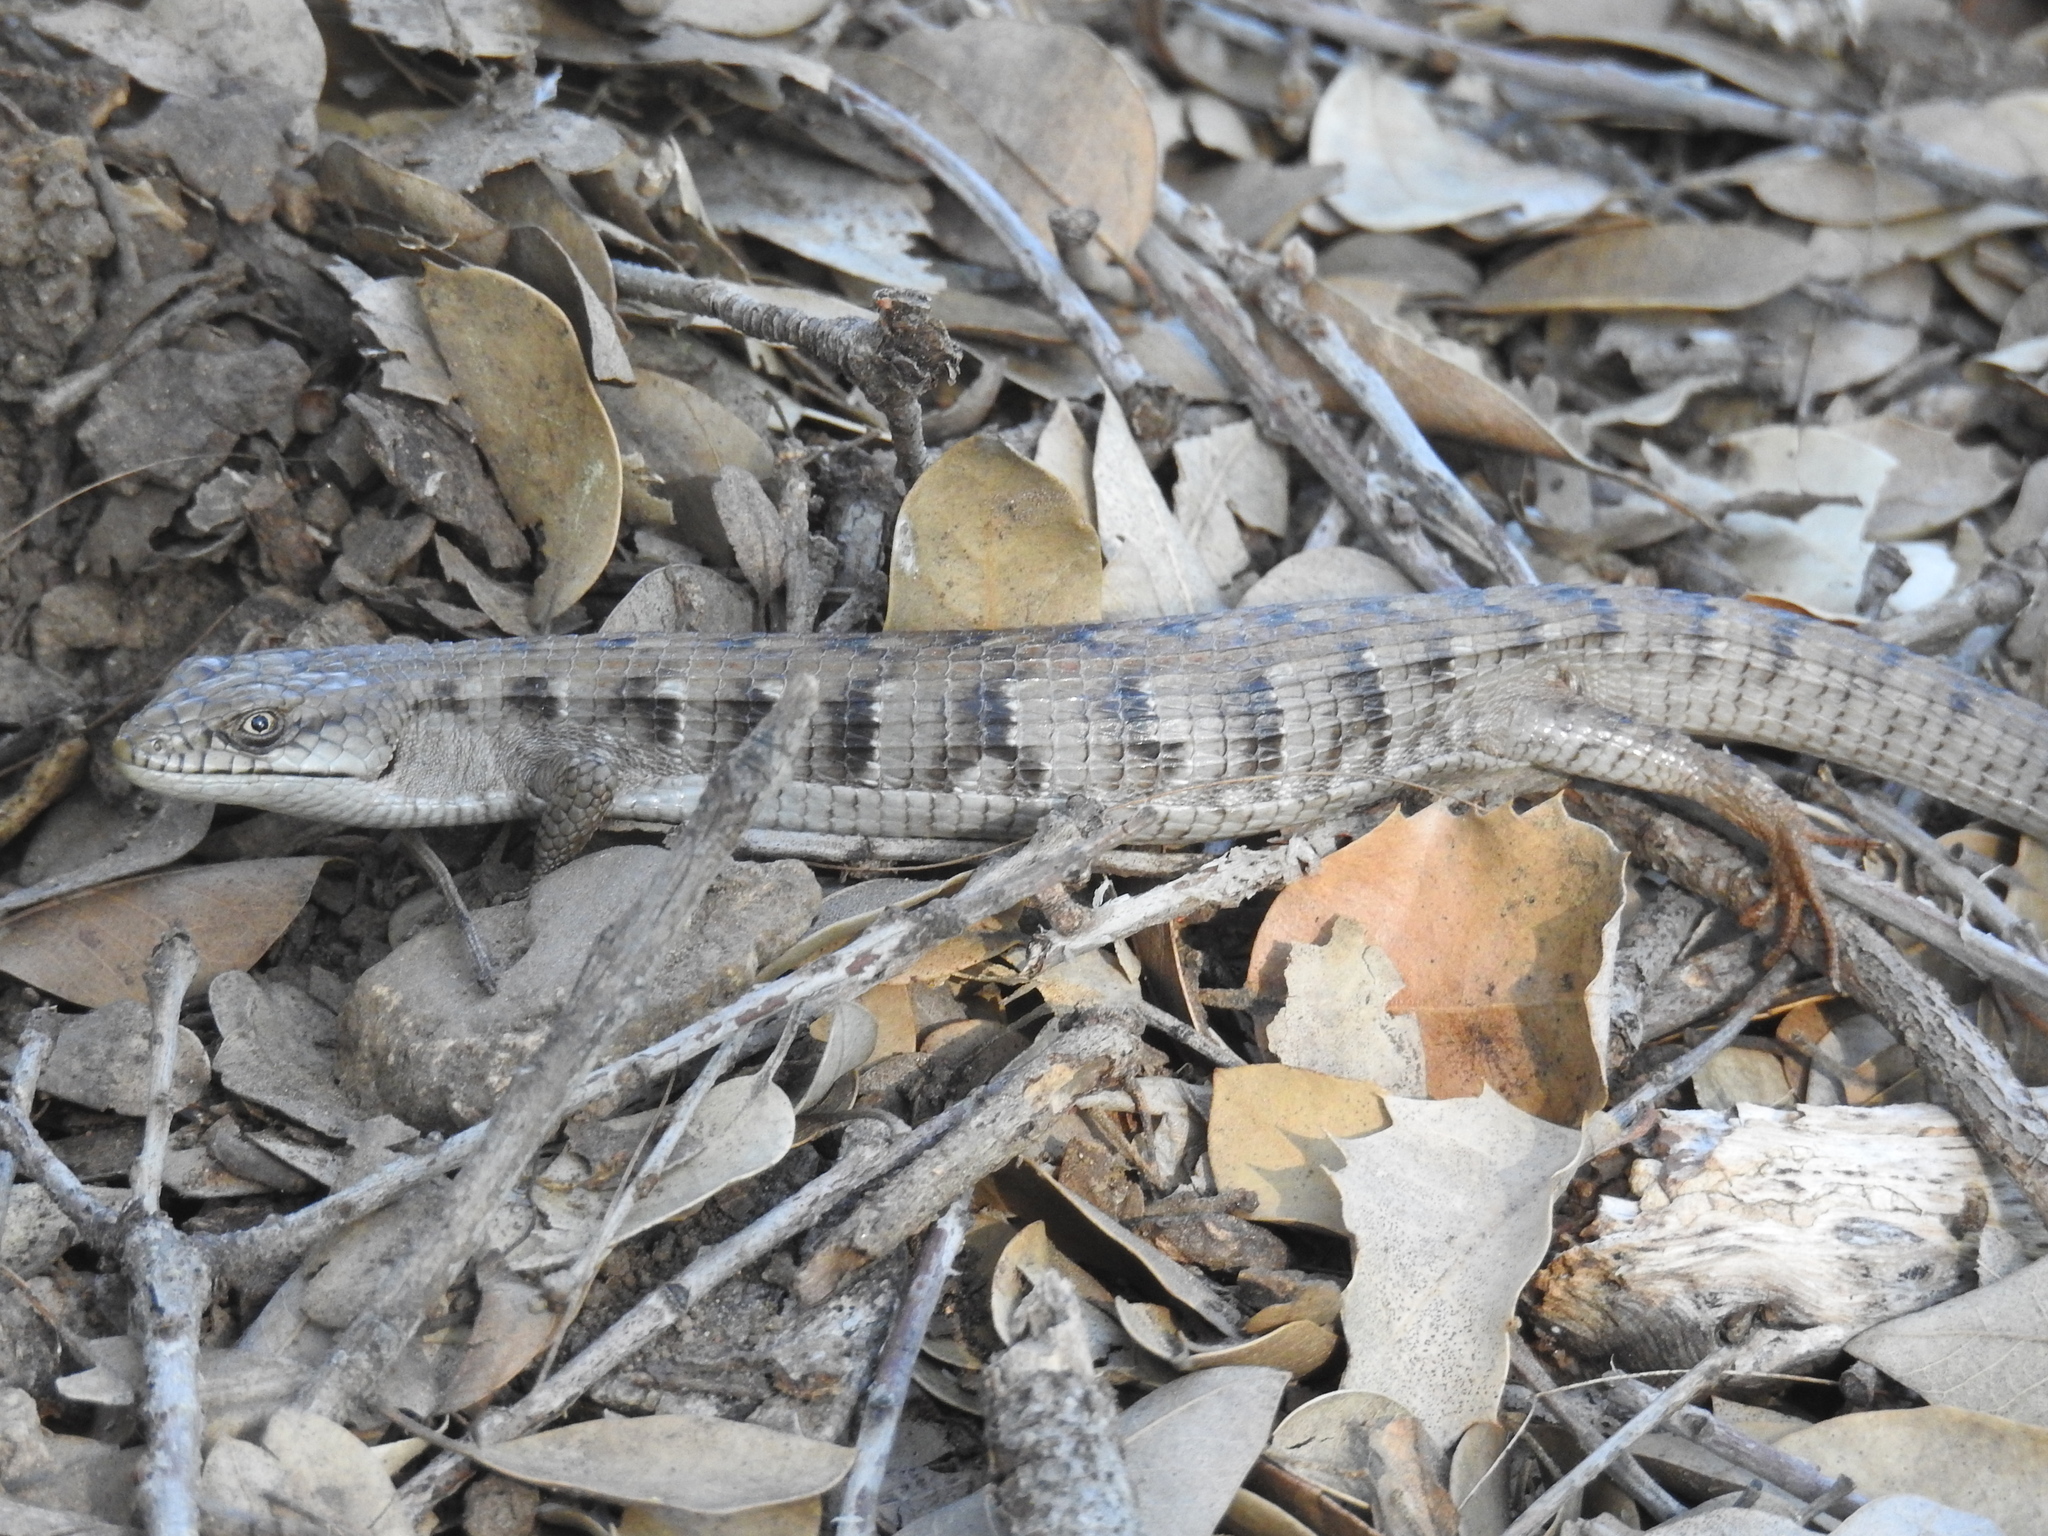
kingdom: Animalia
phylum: Chordata
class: Squamata
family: Anguidae
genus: Elgaria
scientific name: Elgaria multicarinata
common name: Southern alligator lizard
